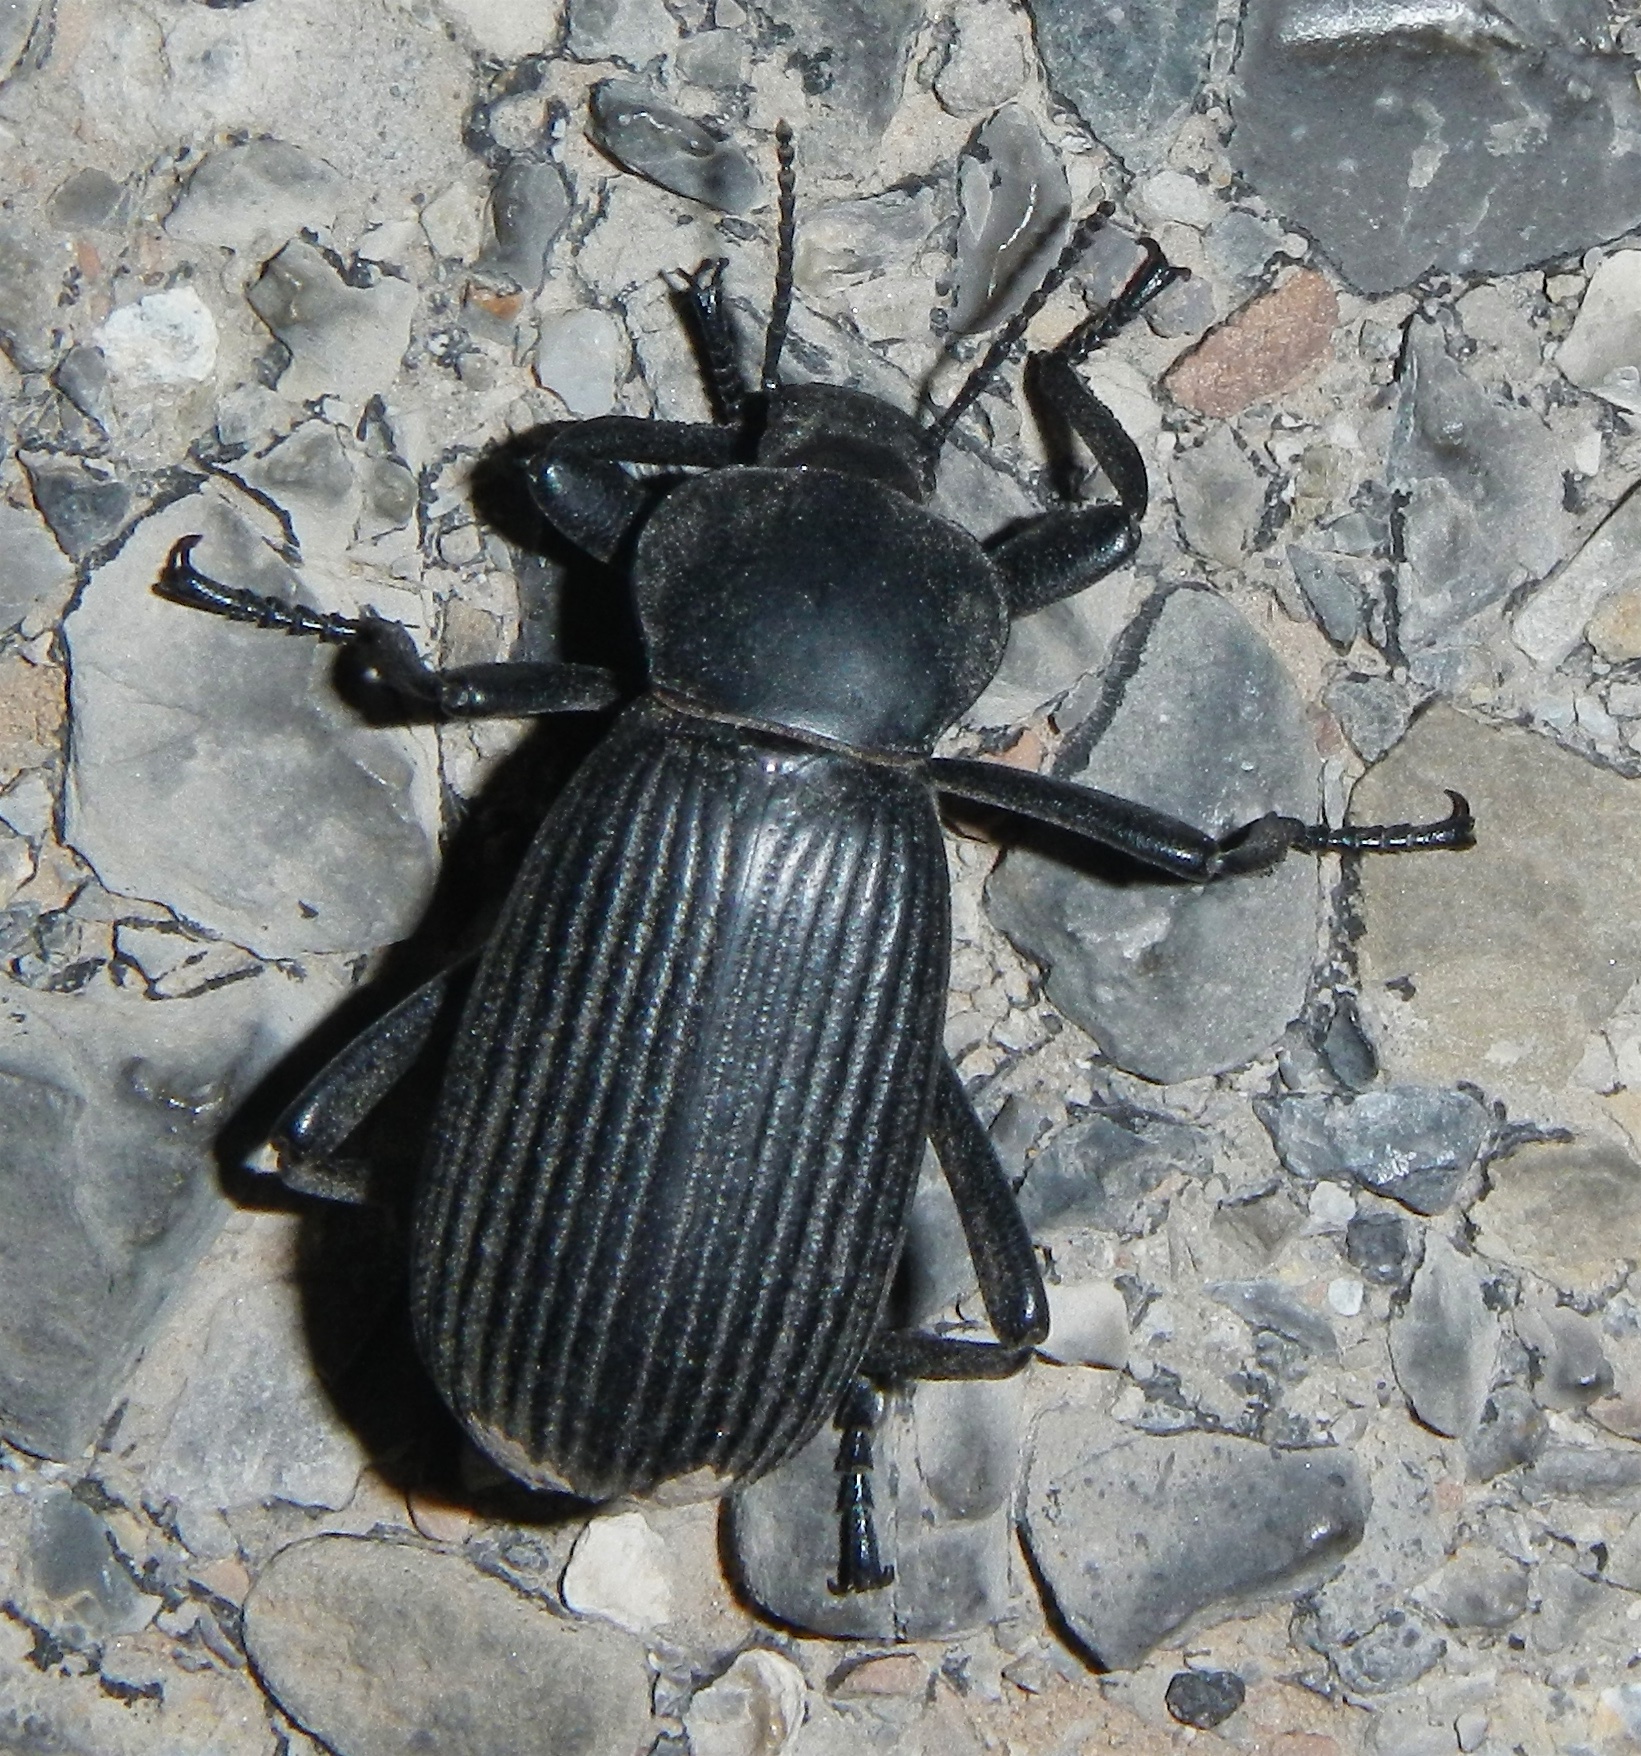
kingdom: Animalia
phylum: Arthropoda
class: Insecta
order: Coleoptera
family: Tenebrionidae
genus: Eleodes
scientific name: Eleodes obscura
